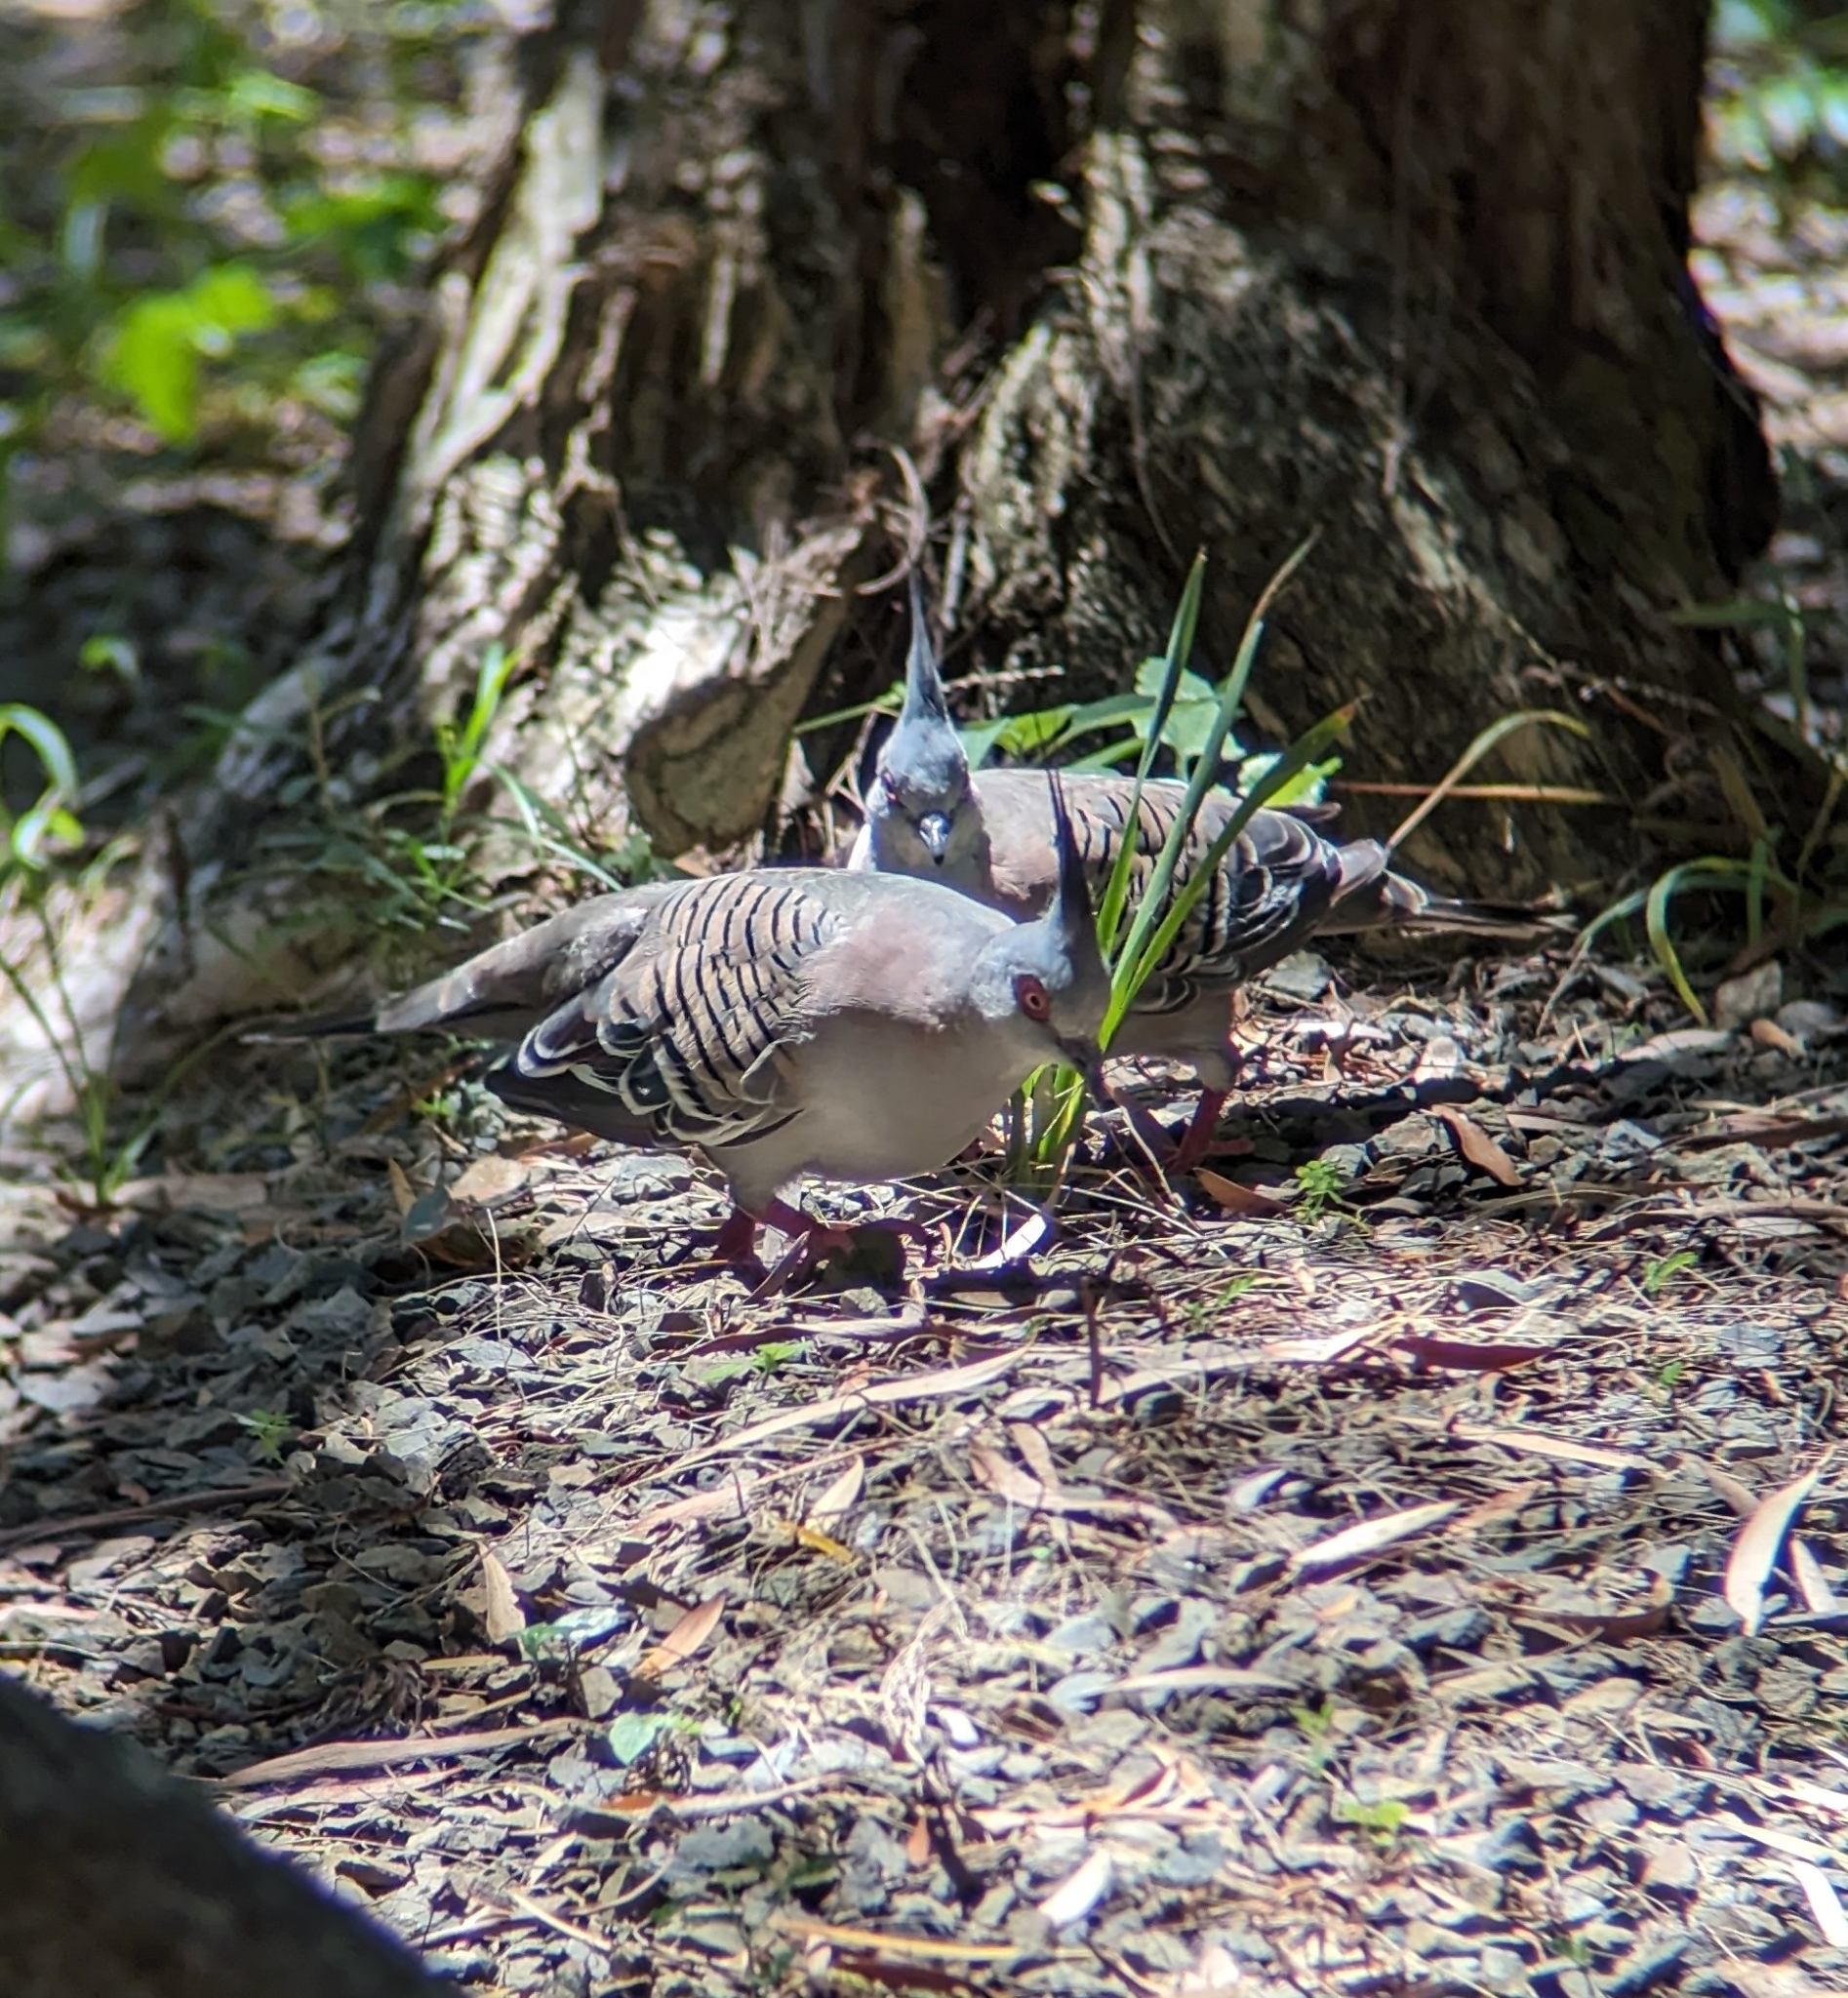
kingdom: Animalia
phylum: Chordata
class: Aves
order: Columbiformes
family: Columbidae
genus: Ocyphaps
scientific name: Ocyphaps lophotes
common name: Crested pigeon
